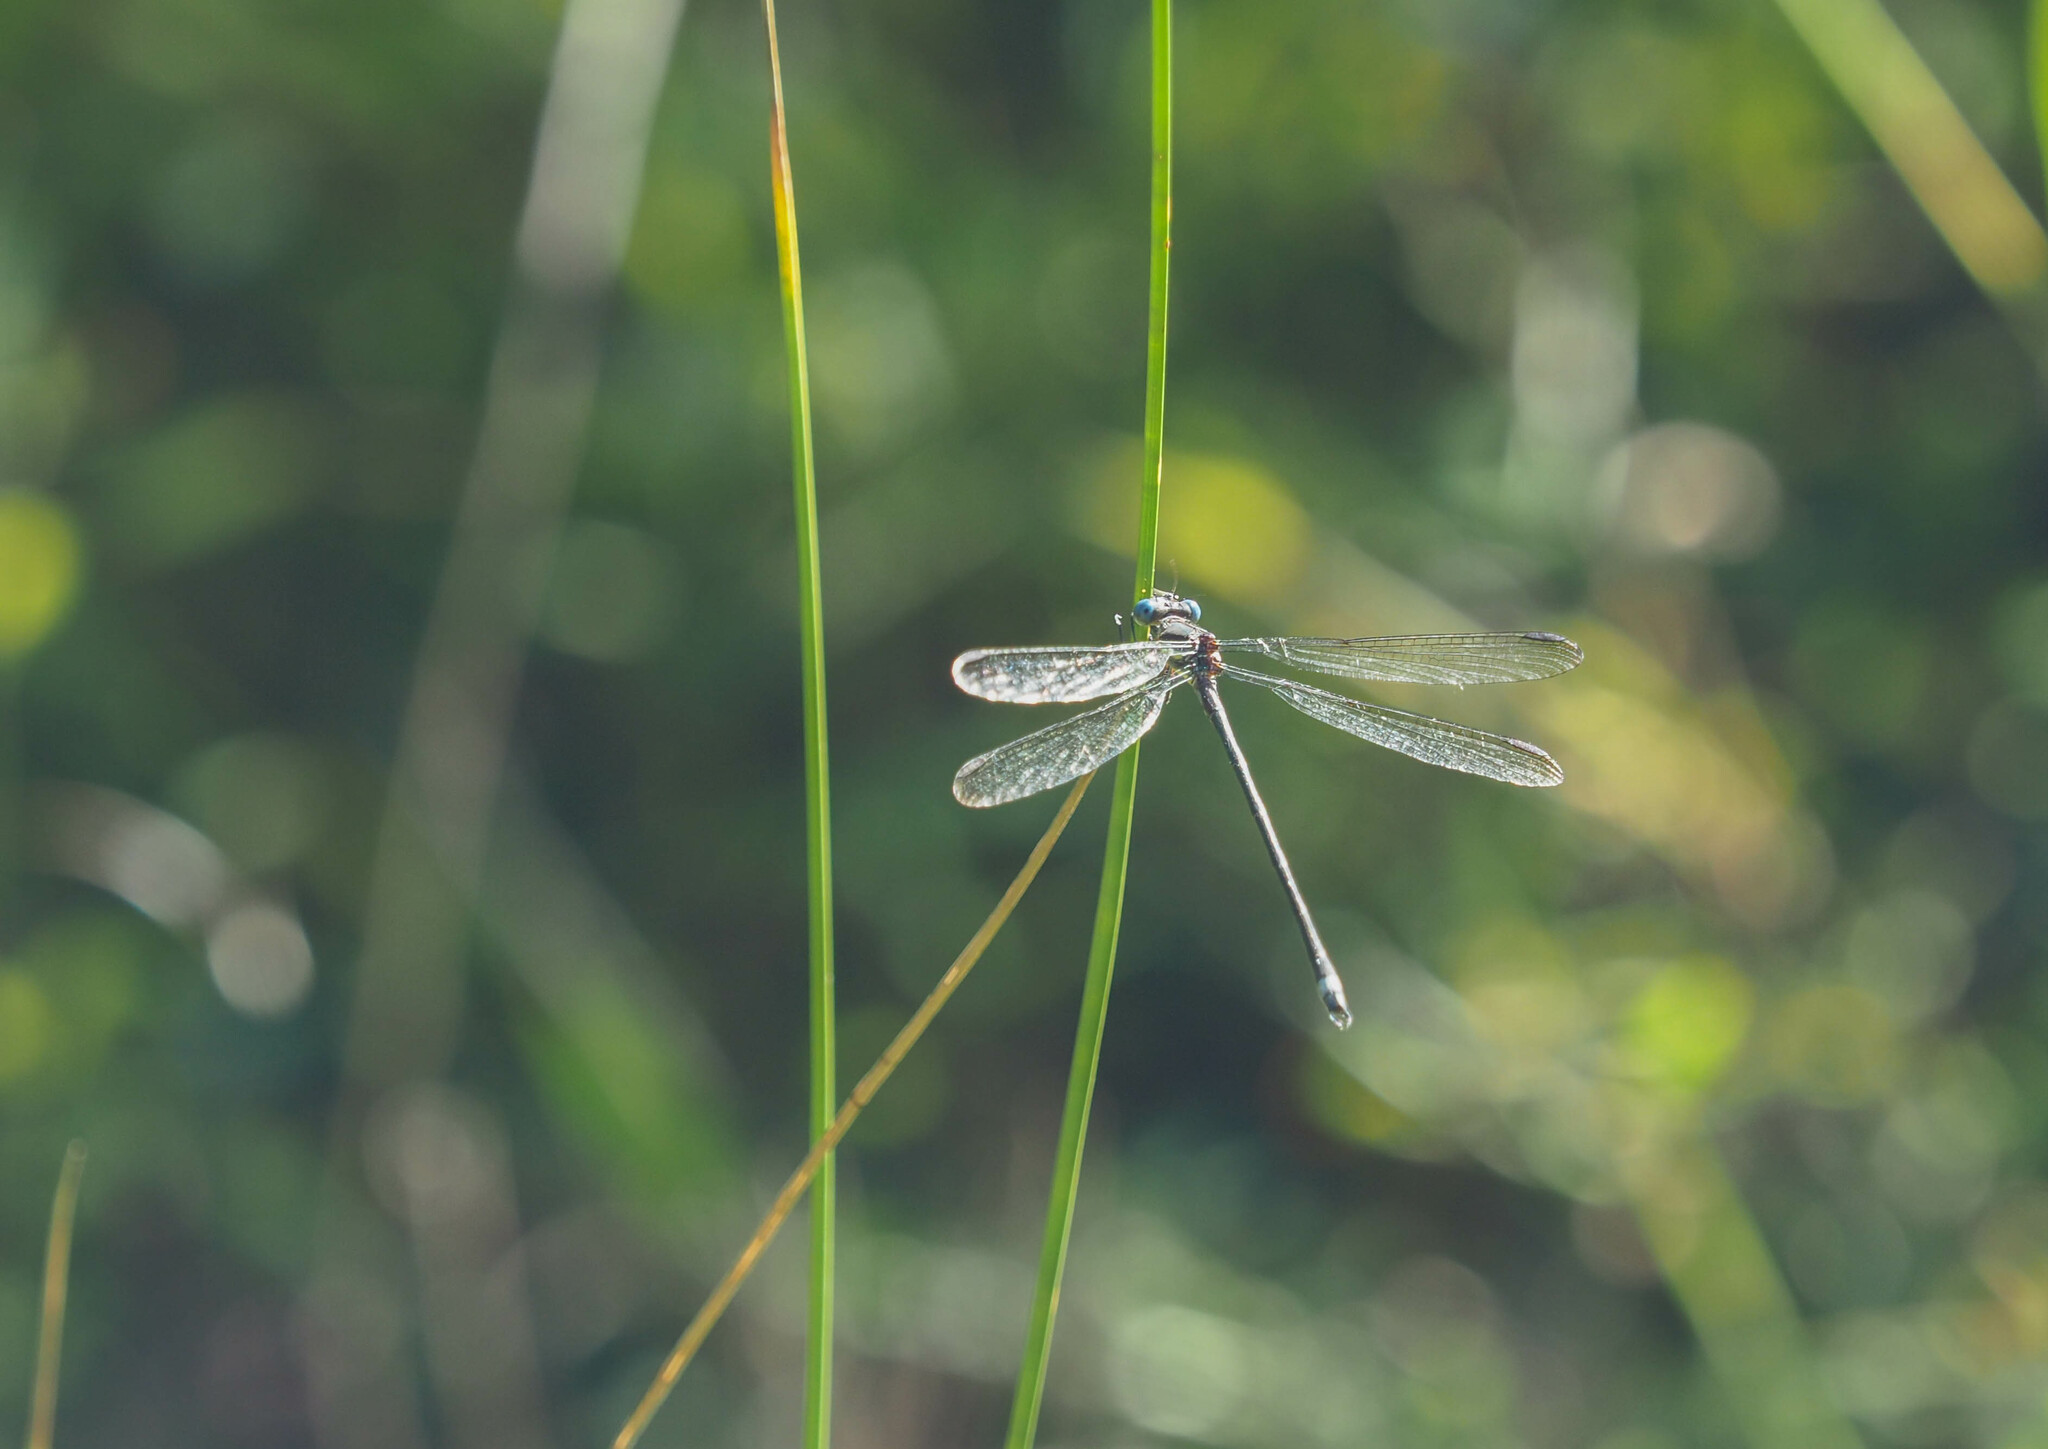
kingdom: Animalia
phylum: Arthropoda
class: Insecta
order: Odonata
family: Lestidae
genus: Archilestes
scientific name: Archilestes grandis
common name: Great spreadwing
